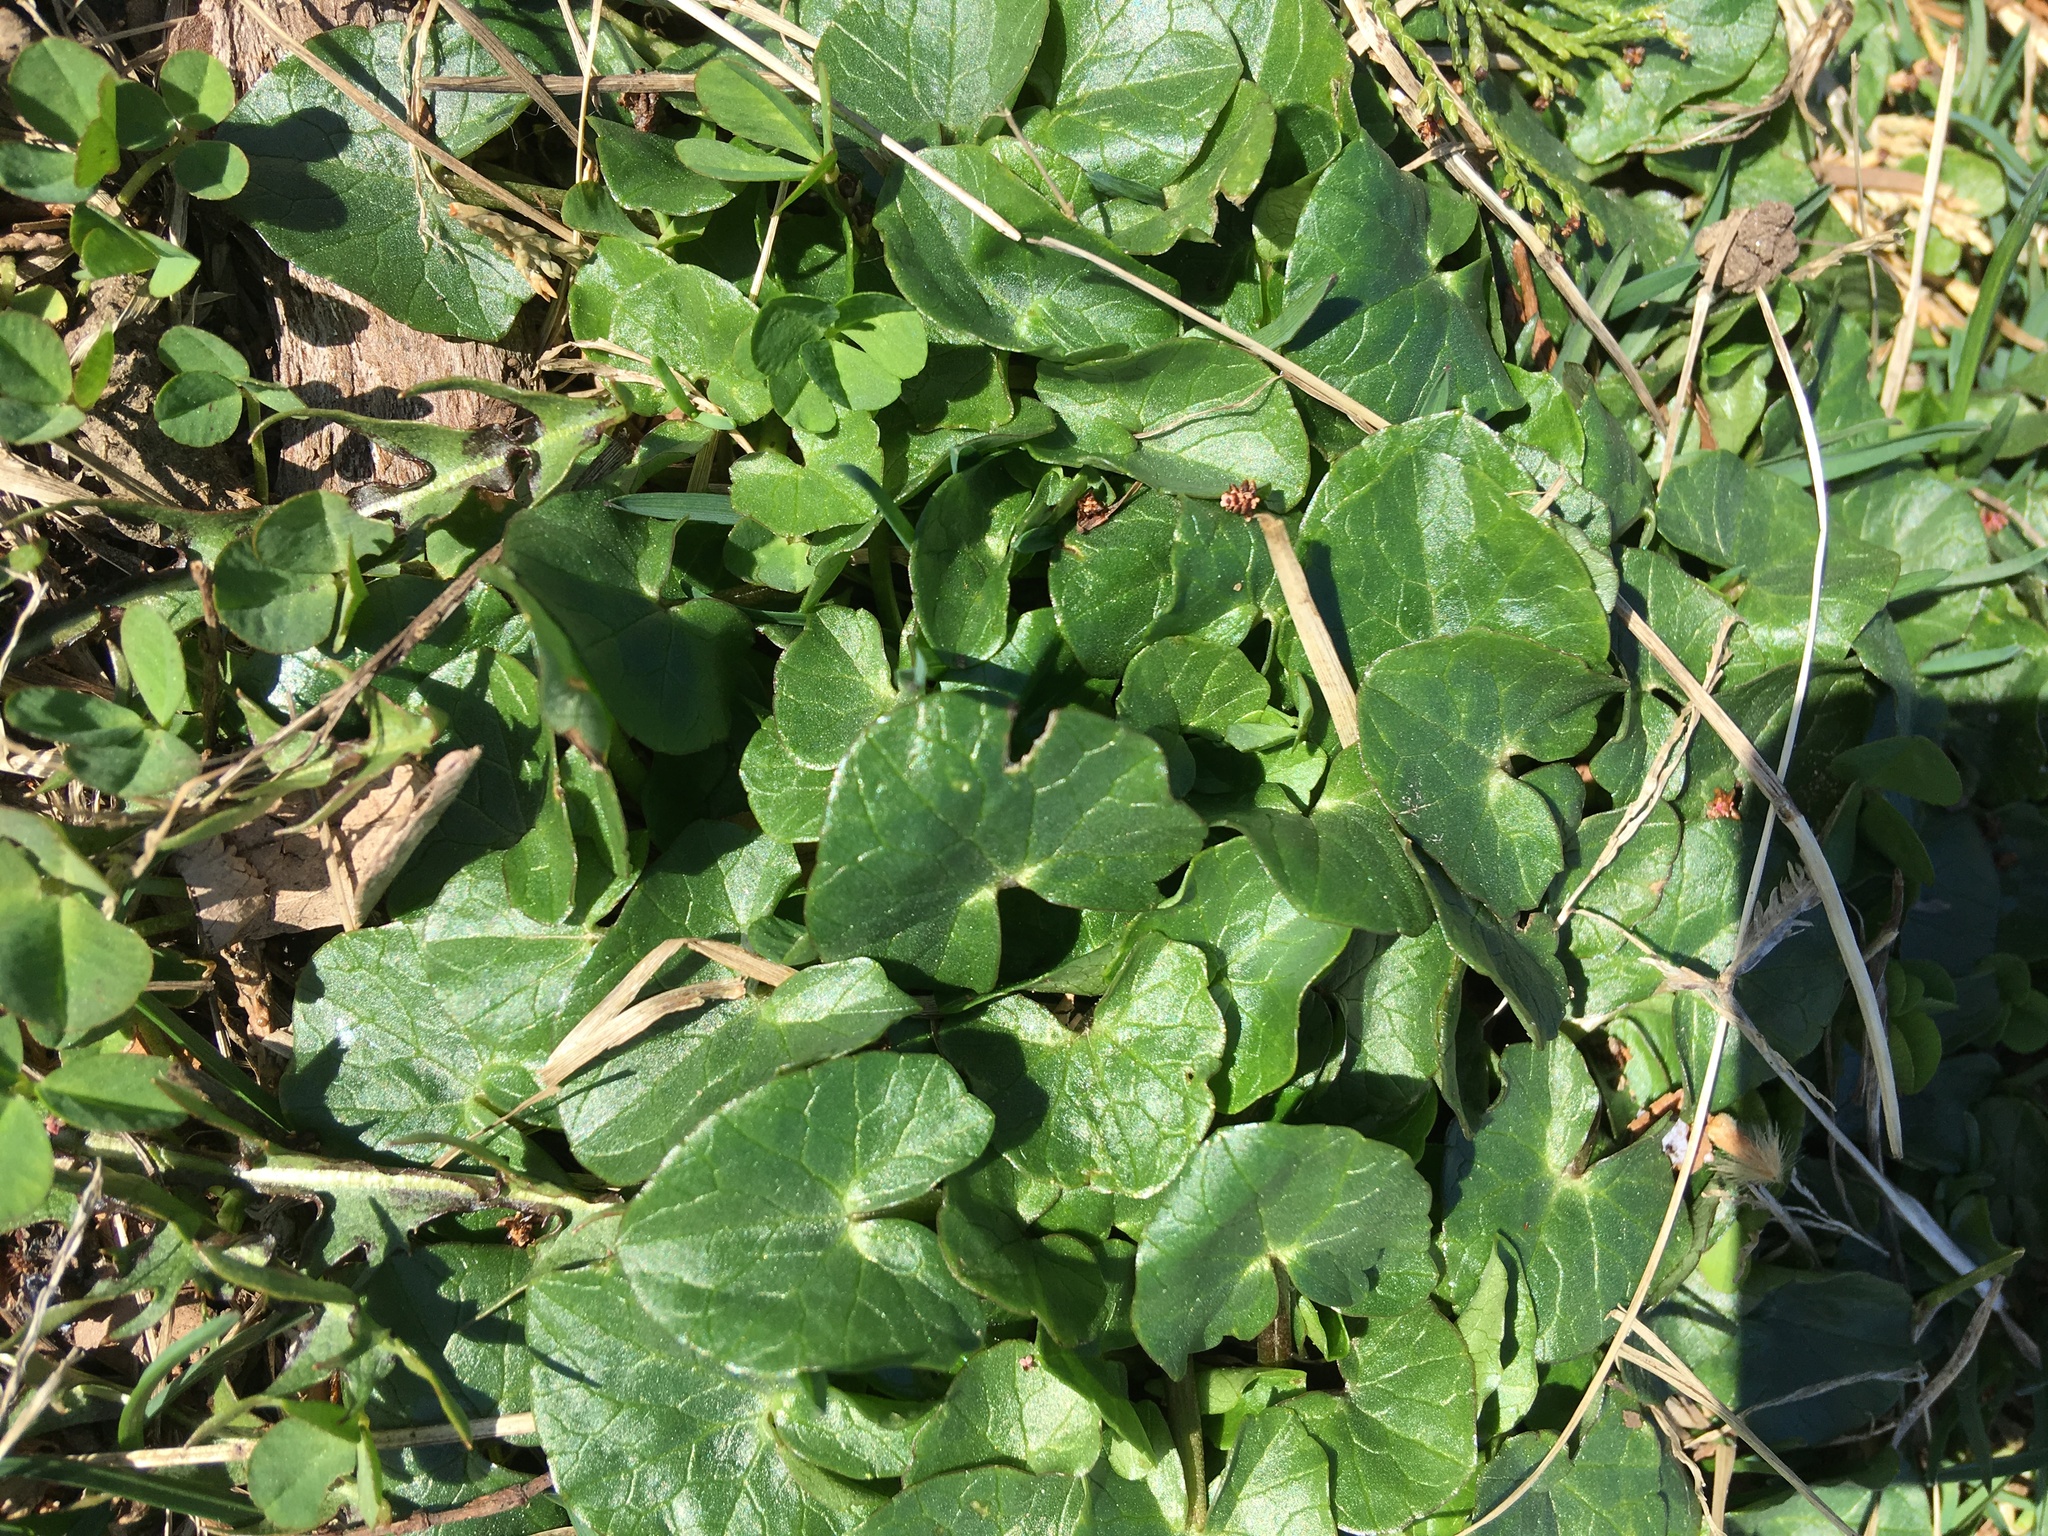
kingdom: Plantae
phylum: Tracheophyta
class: Magnoliopsida
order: Ranunculales
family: Ranunculaceae
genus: Ficaria
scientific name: Ficaria verna
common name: Lesser celandine
